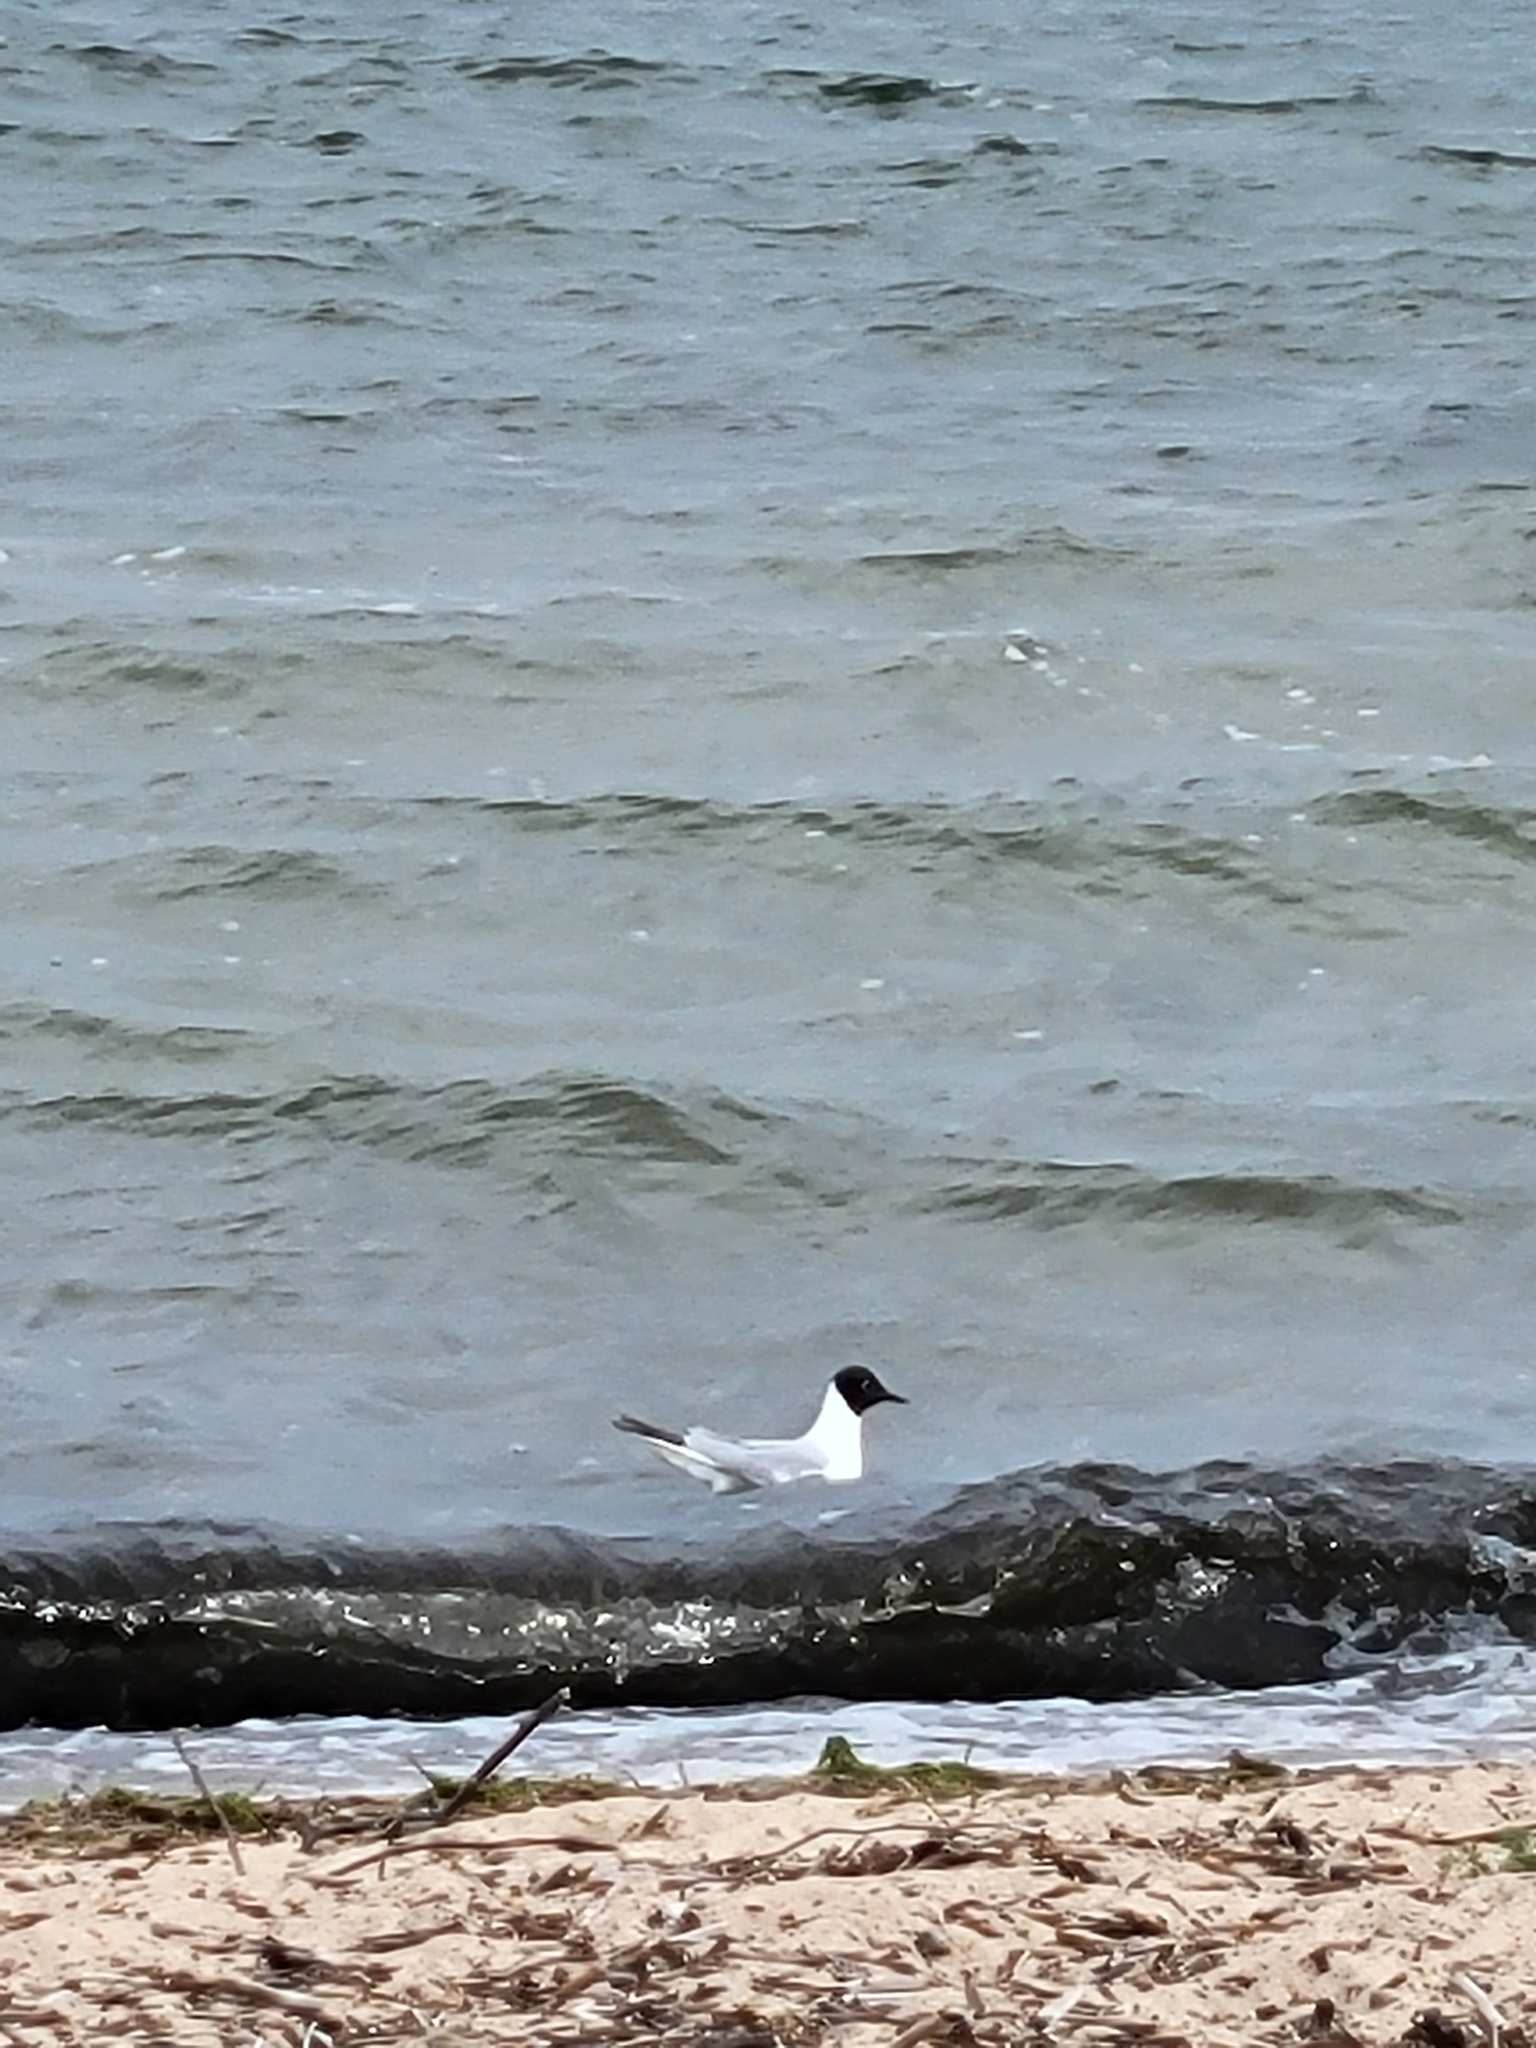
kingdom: Animalia
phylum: Chordata
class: Aves
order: Charadriiformes
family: Laridae
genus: Chroicocephalus
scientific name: Chroicocephalus philadelphia
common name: Bonaparte's gull
